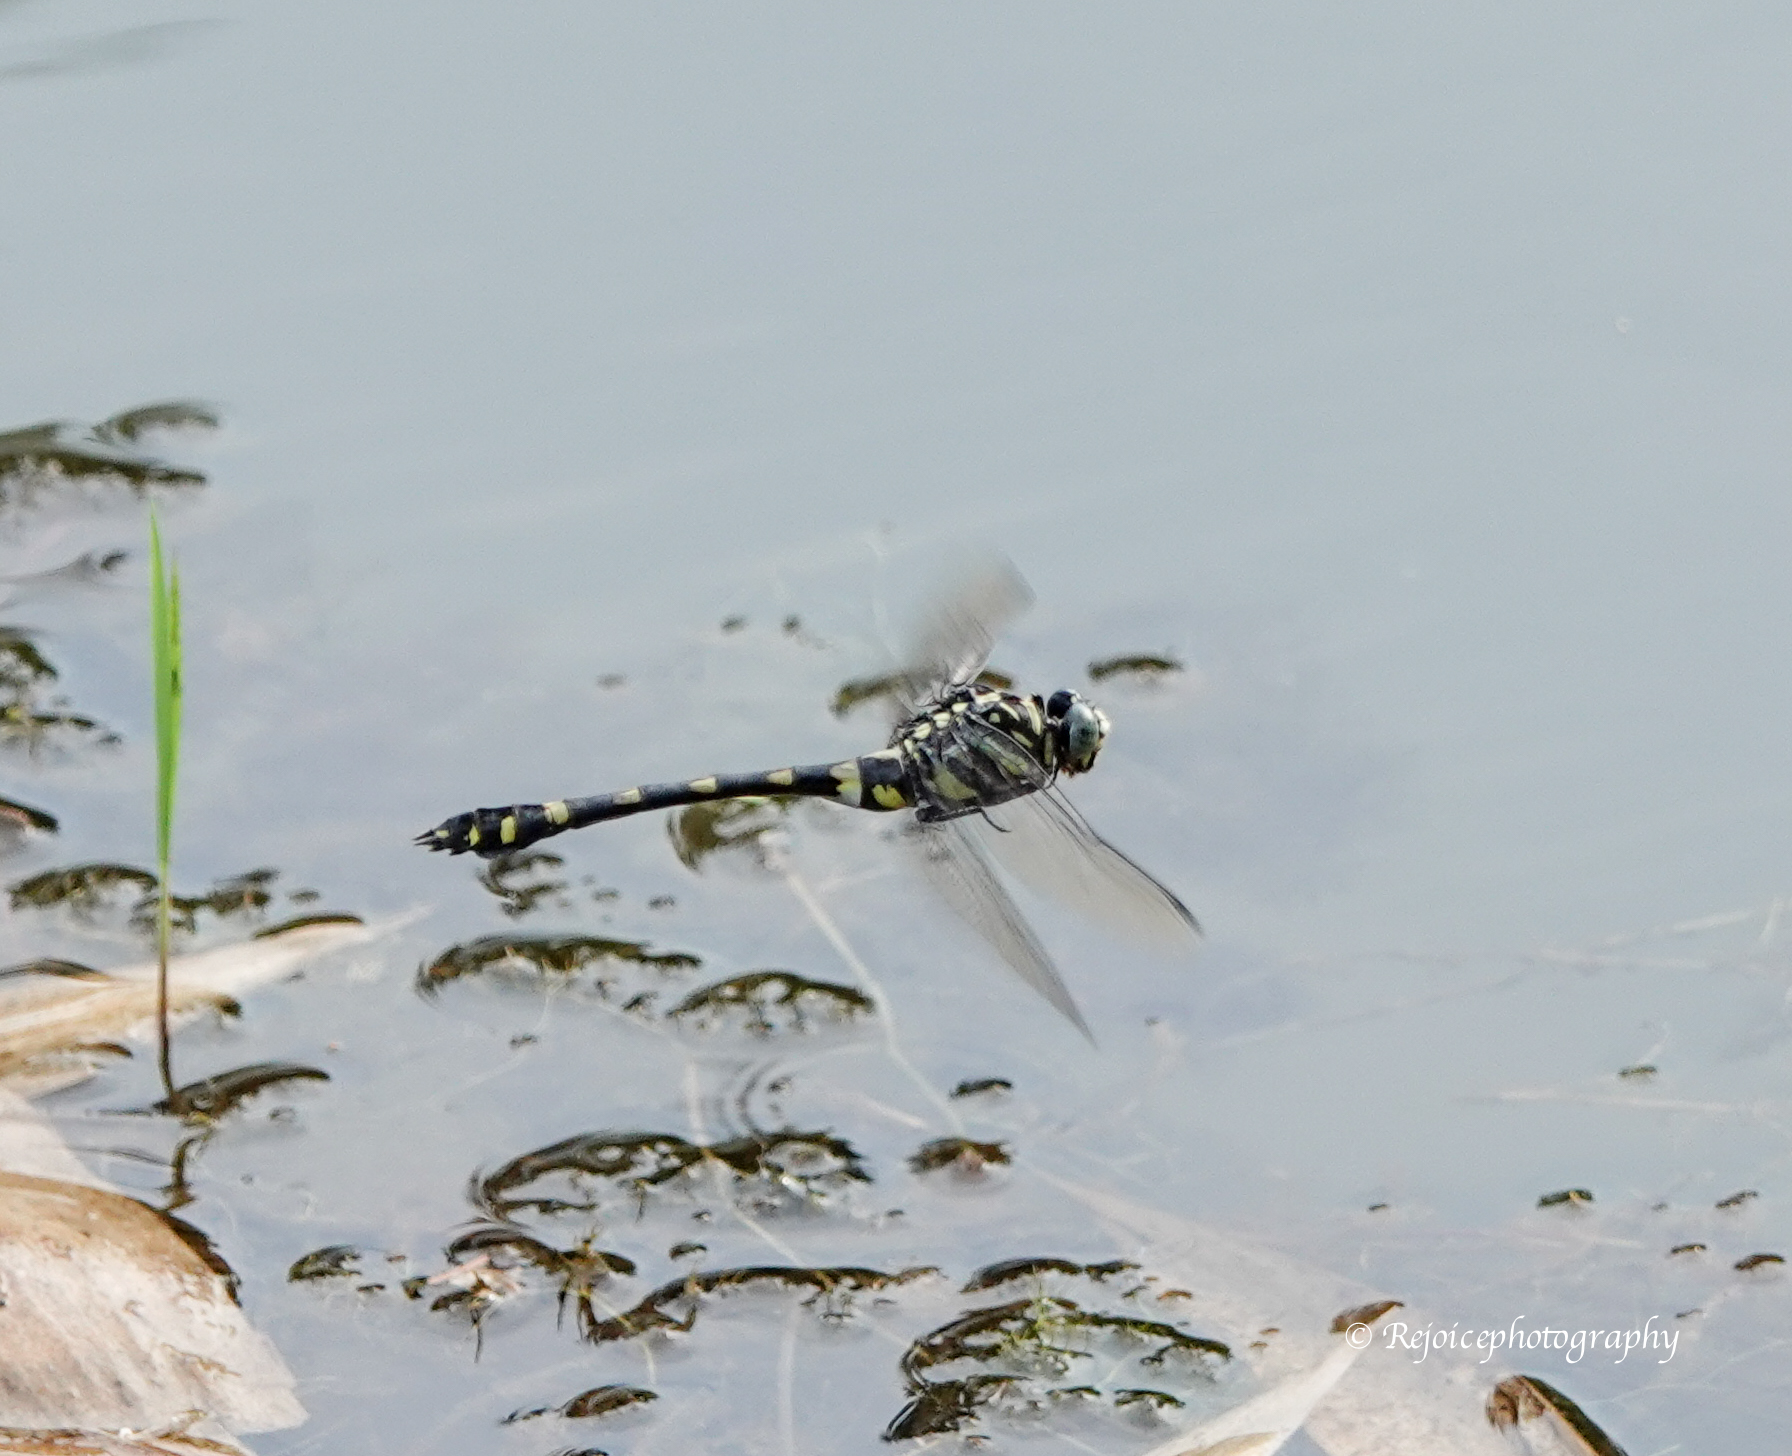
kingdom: Animalia
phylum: Arthropoda
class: Insecta
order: Odonata
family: Gomphidae
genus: Ictinogomphus
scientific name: Ictinogomphus rapax
